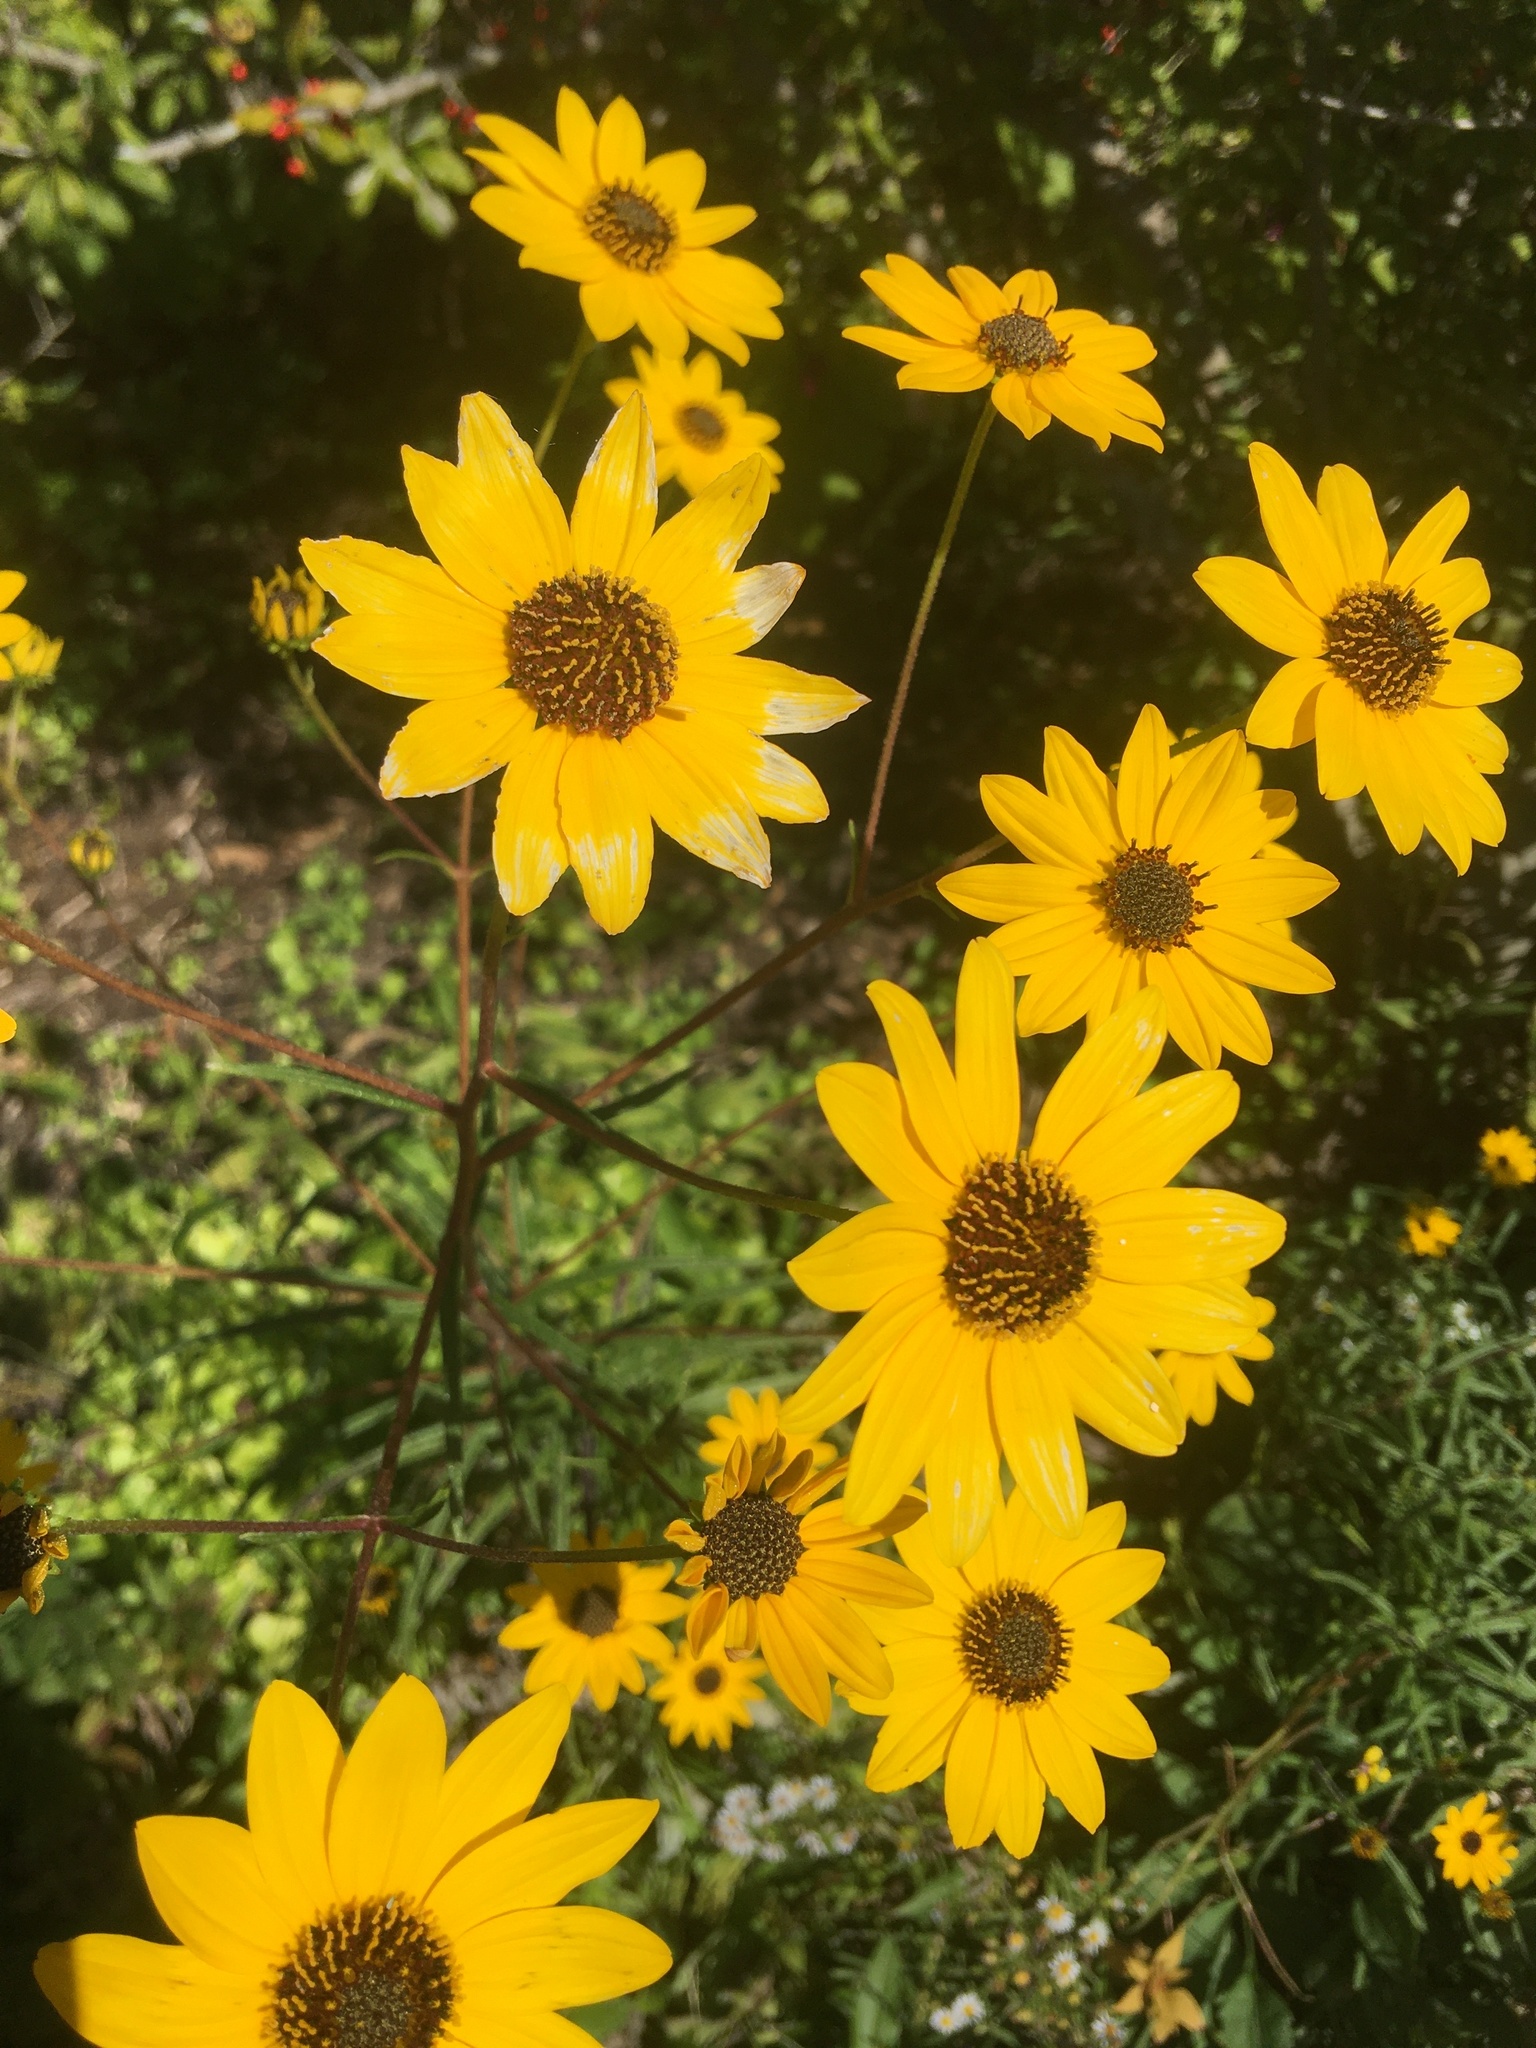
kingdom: Plantae
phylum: Tracheophyta
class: Magnoliopsida
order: Asterales
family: Asteraceae
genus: Helianthus
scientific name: Helianthus angustifolius
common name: Swamp sunflower
